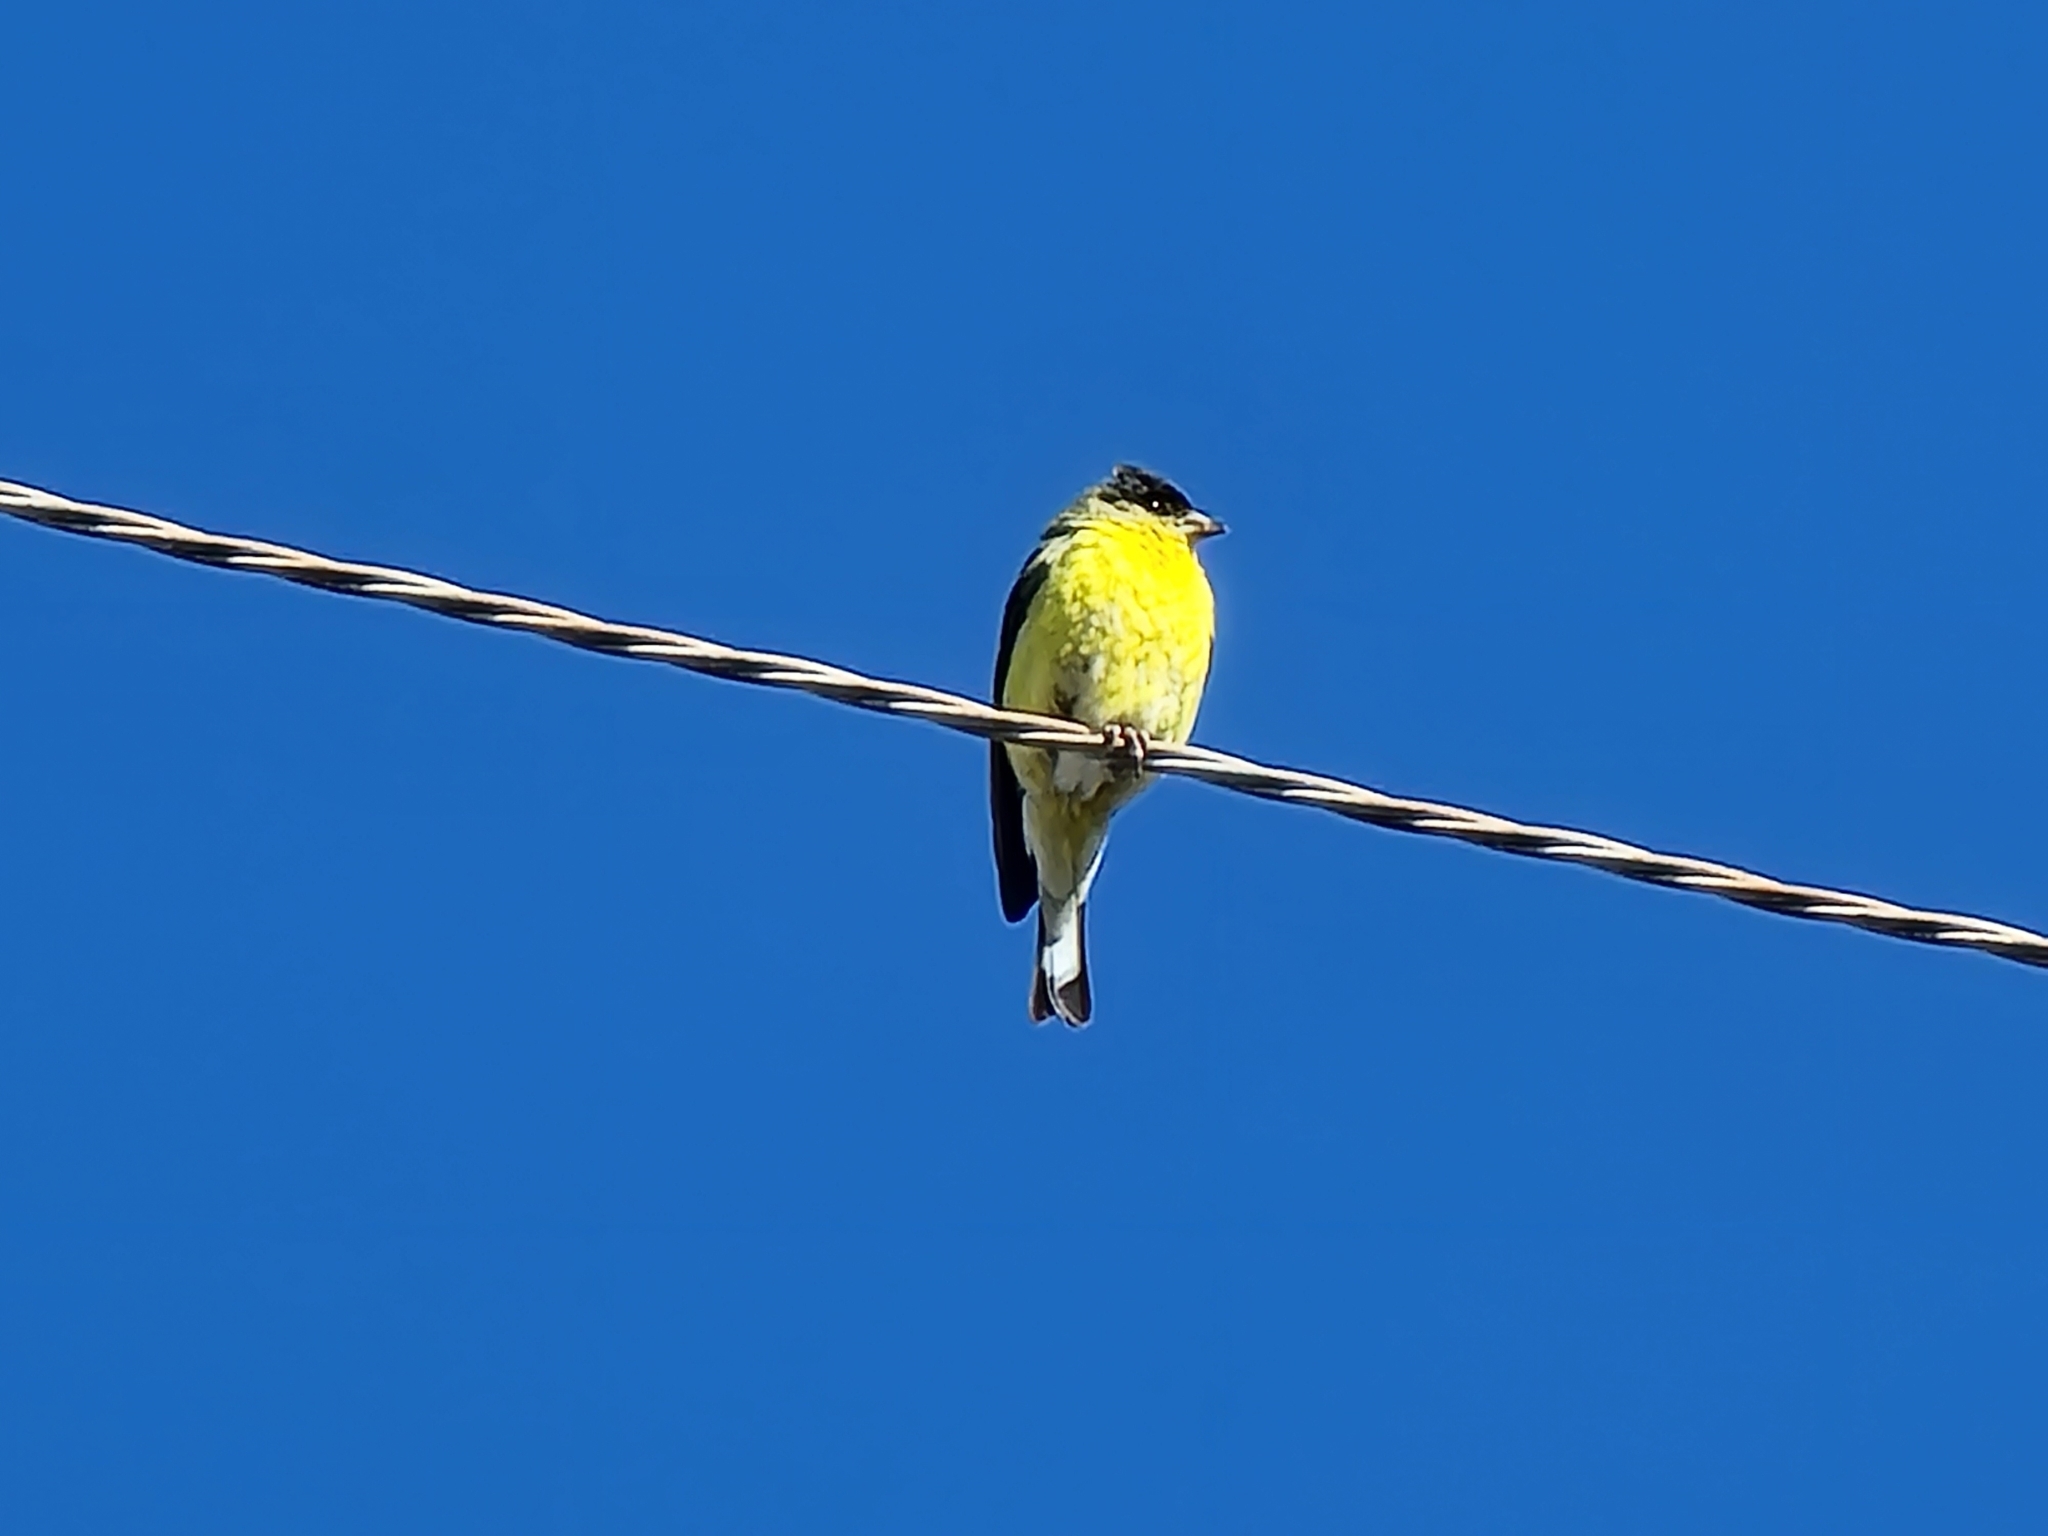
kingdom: Animalia
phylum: Chordata
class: Aves
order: Passeriformes
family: Fringillidae
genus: Spinus
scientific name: Spinus tristis
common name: American goldfinch
